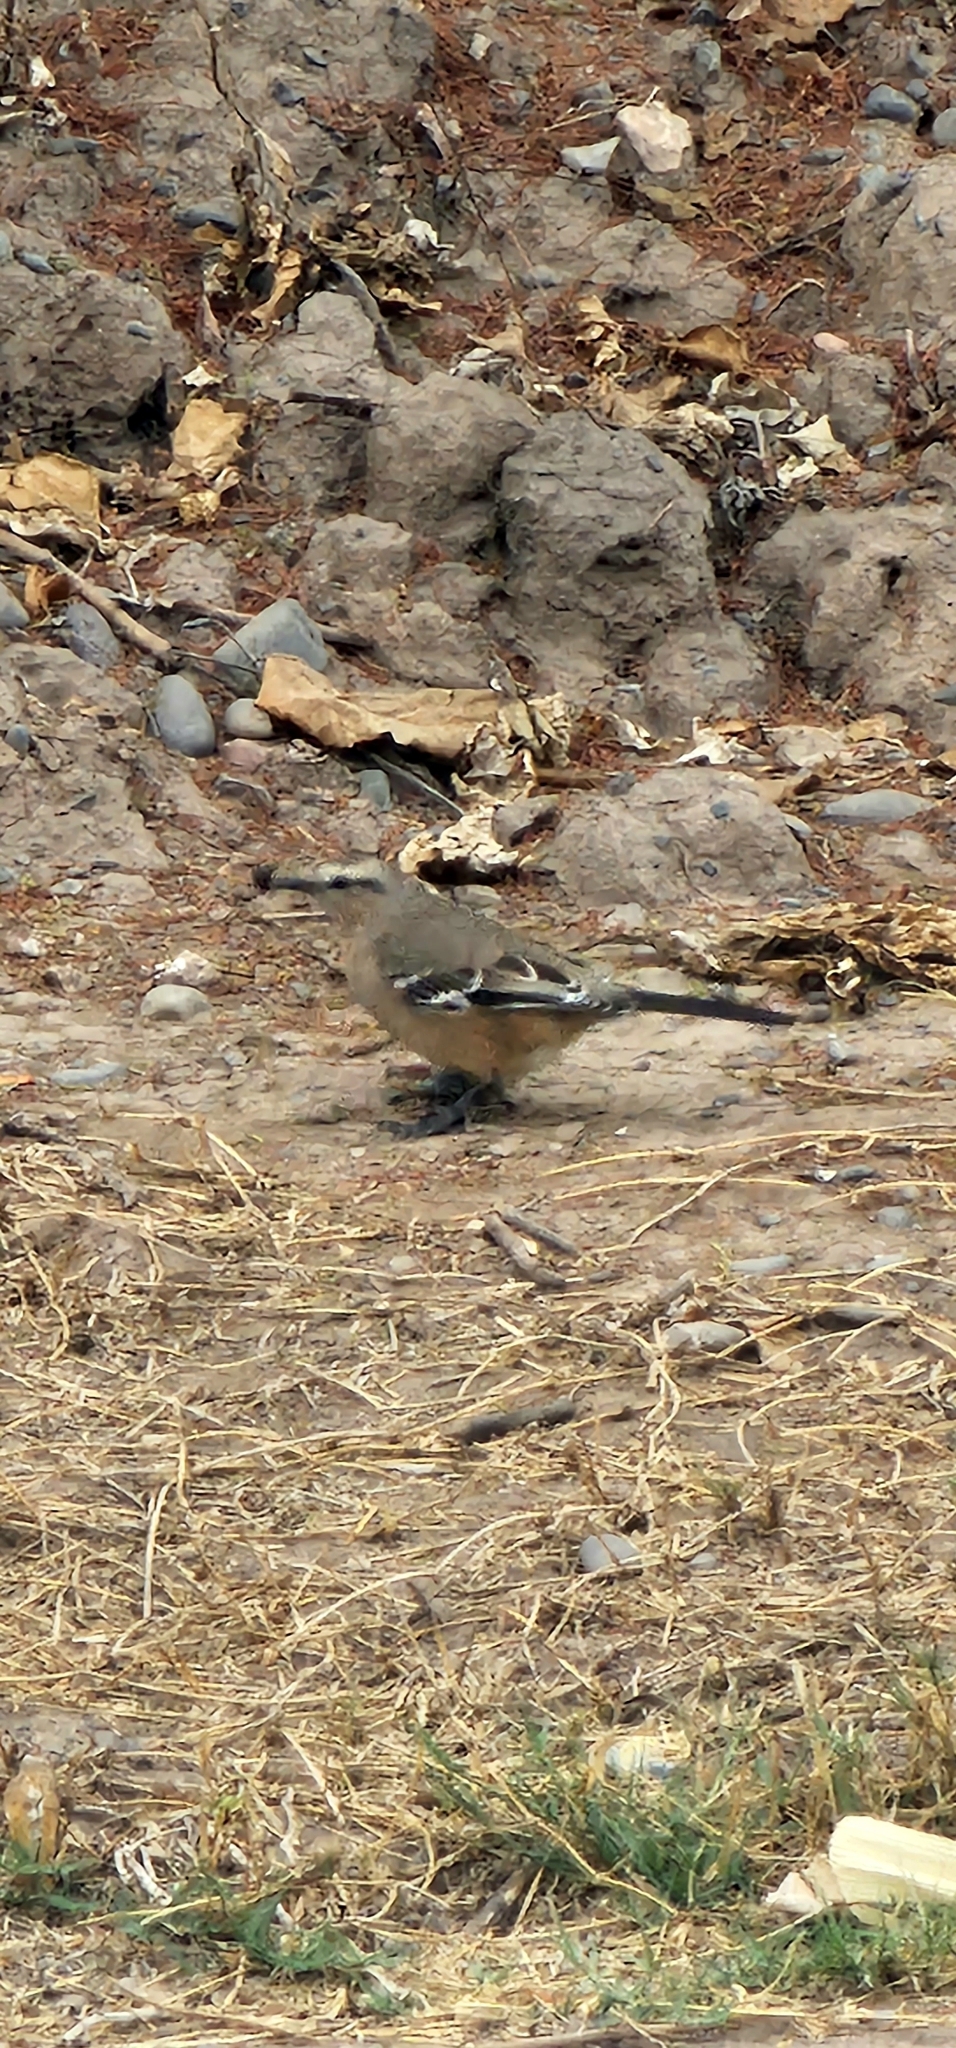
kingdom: Animalia
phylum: Chordata
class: Aves
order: Passeriformes
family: Mimidae
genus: Mimus
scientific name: Mimus patagonicus
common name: Patagonian mockingbird
